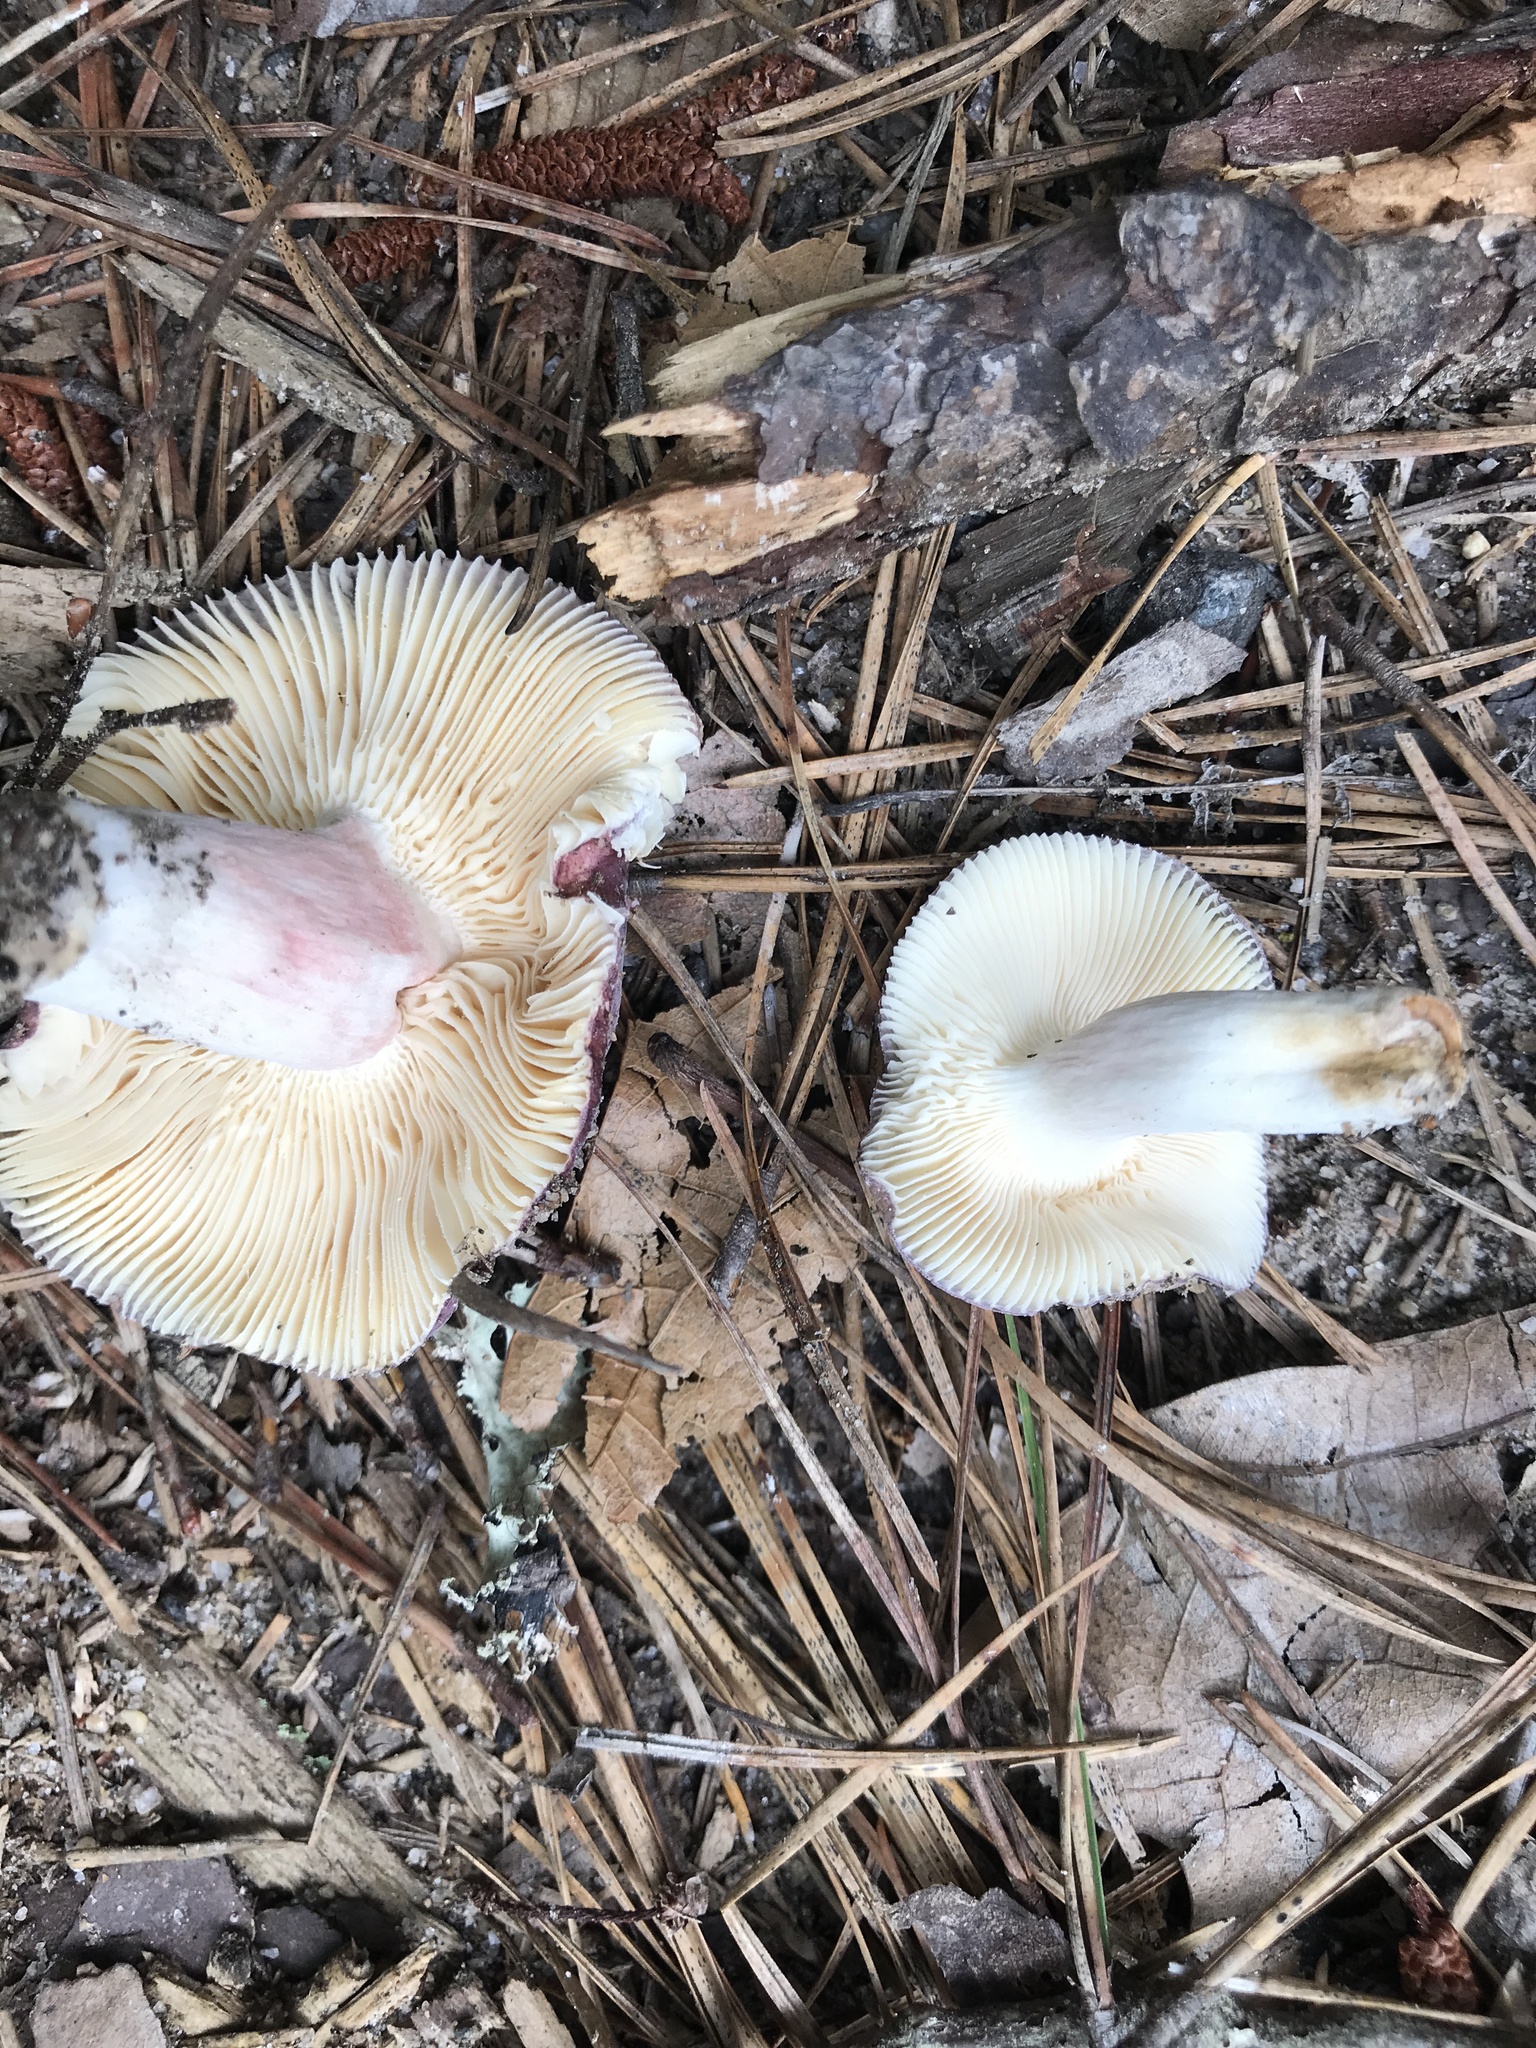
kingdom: Fungi
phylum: Basidiomycota
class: Agaricomycetes
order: Russulales
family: Russulaceae
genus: Russula
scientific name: Russula mariae
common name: Purple-bloom russula
